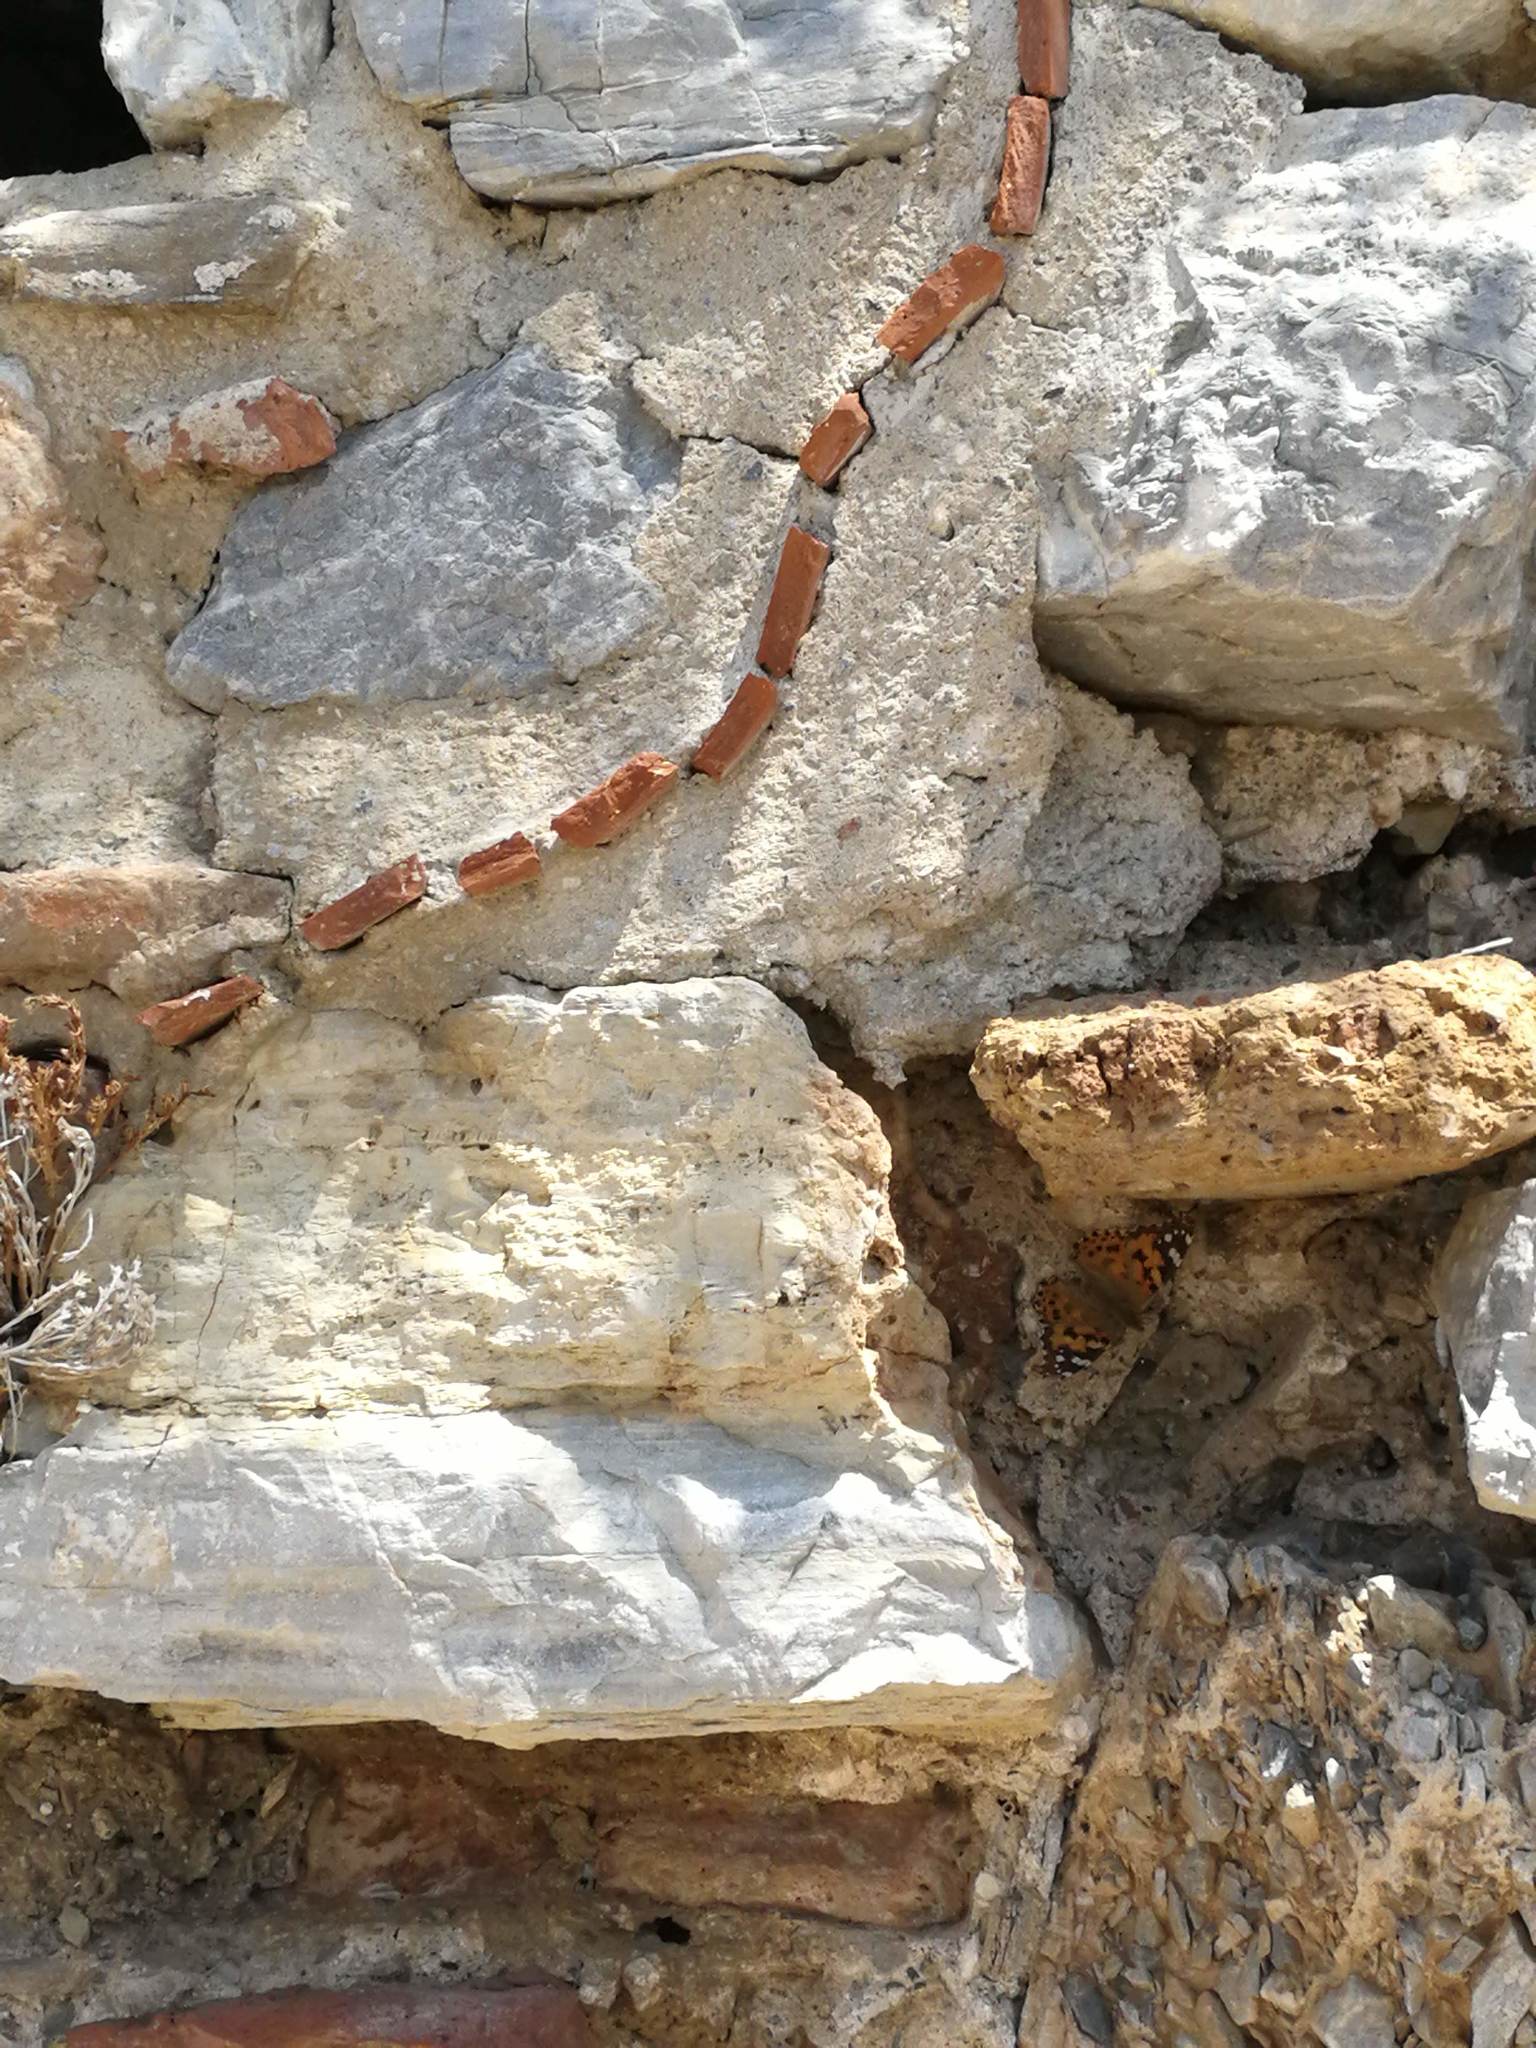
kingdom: Animalia
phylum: Arthropoda
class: Insecta
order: Lepidoptera
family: Nymphalidae
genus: Vanessa
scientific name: Vanessa cardui
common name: Painted lady
